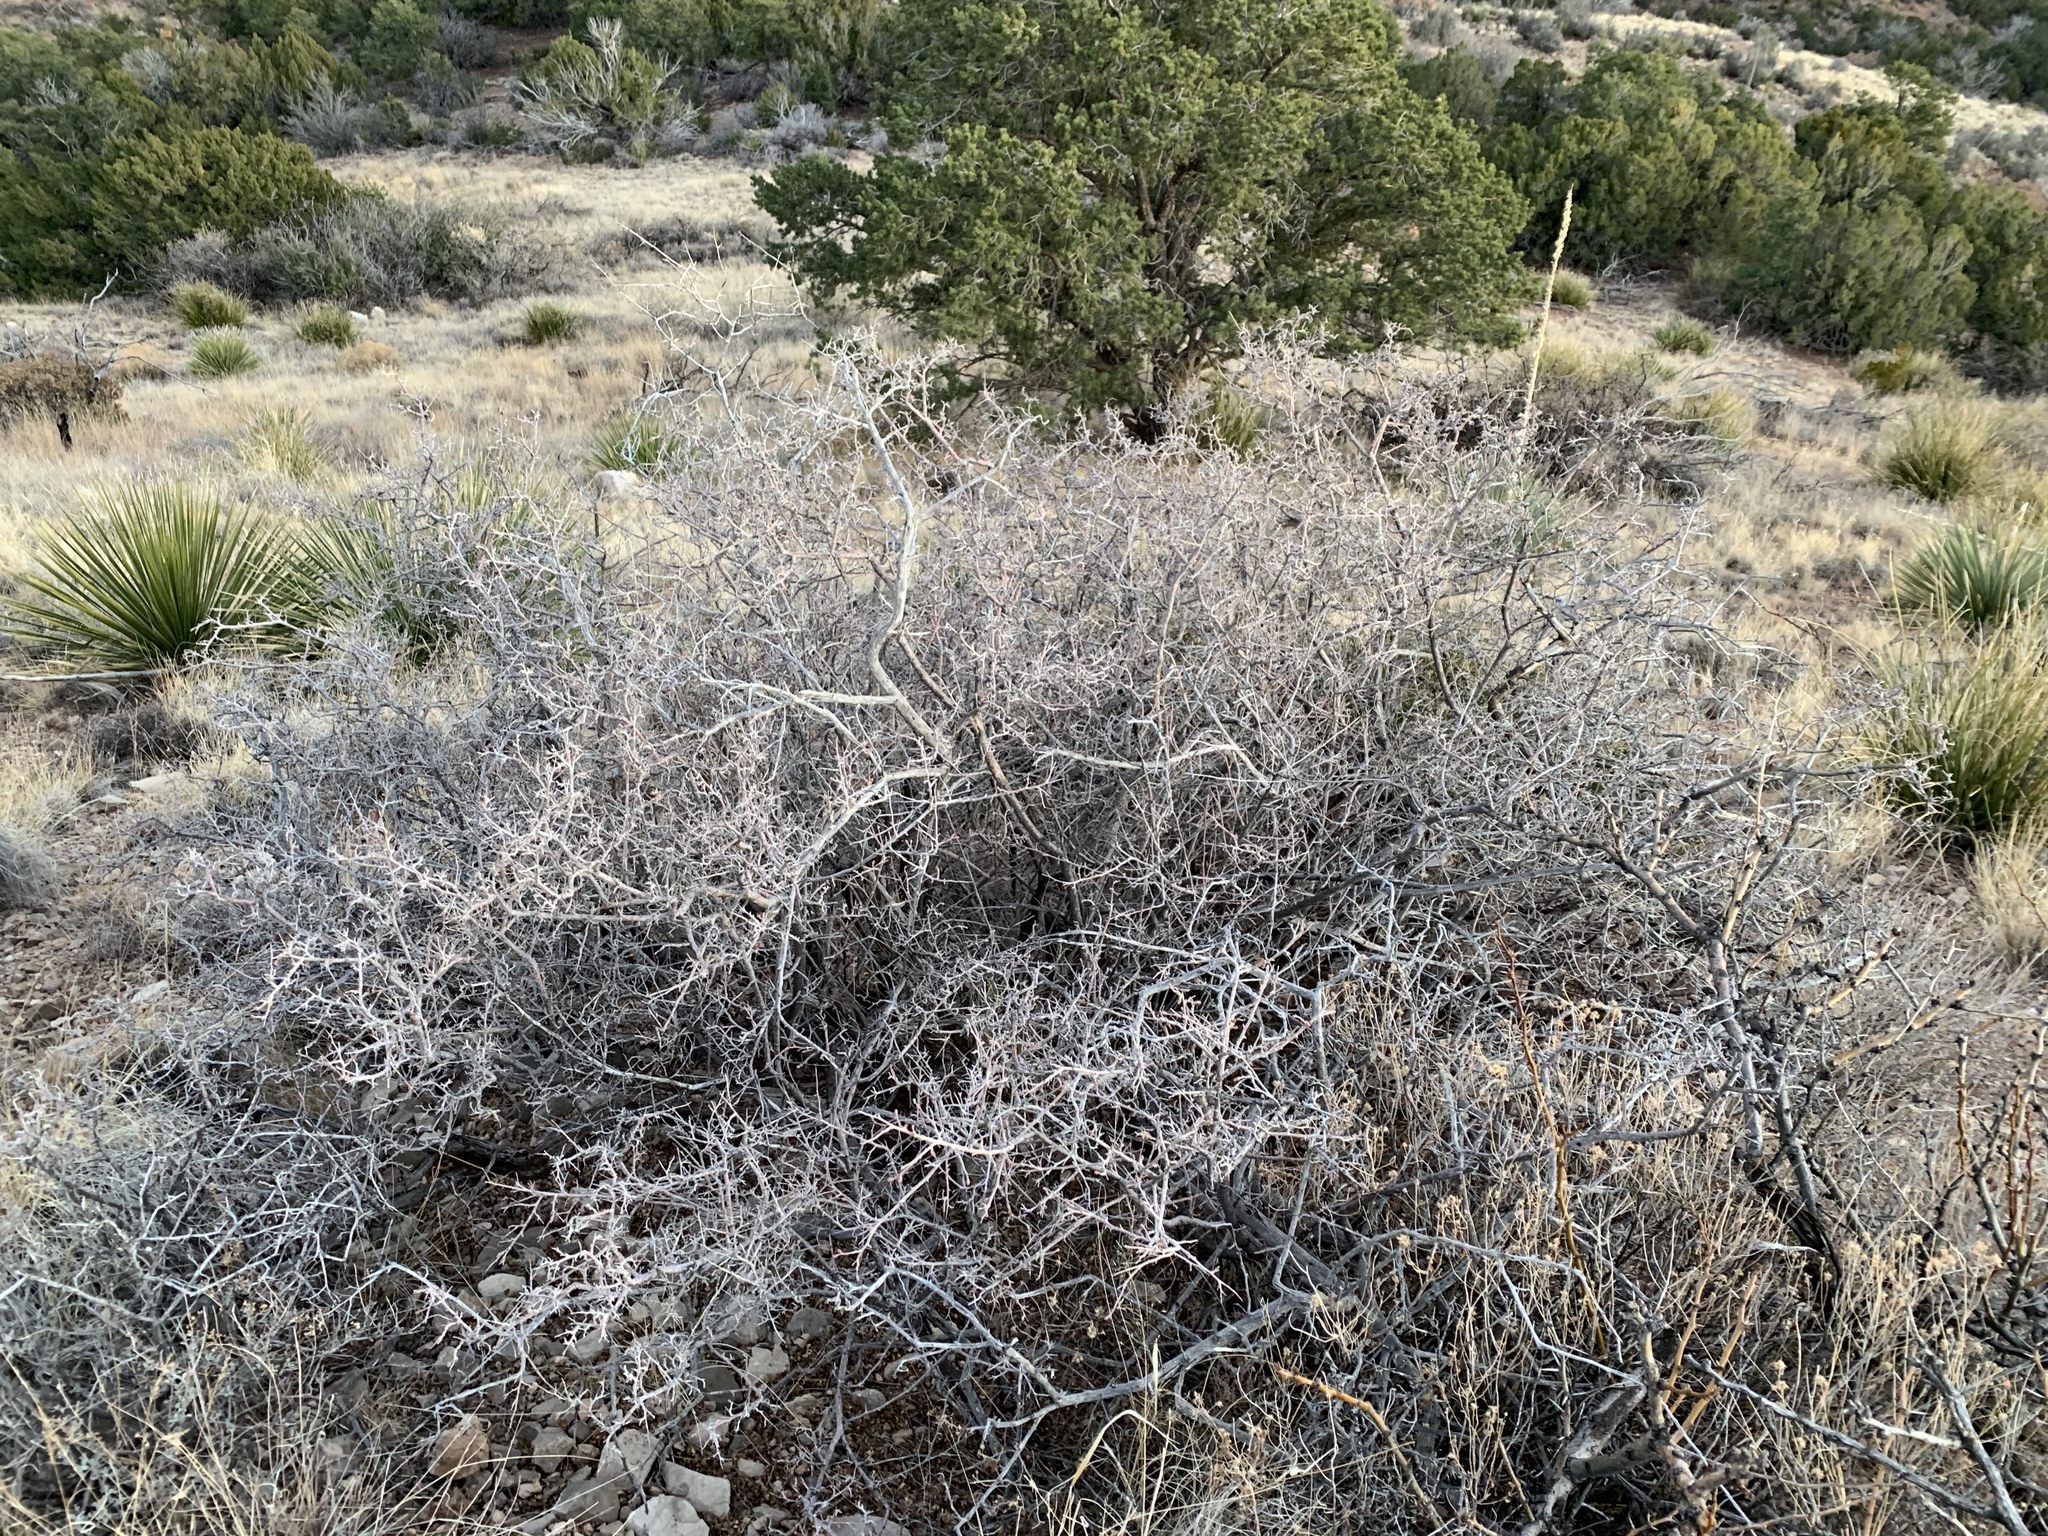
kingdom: Plantae
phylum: Tracheophyta
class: Magnoliopsida
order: Sapindales
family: Anacardiaceae
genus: Rhus
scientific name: Rhus microphylla
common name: Desert sumac
